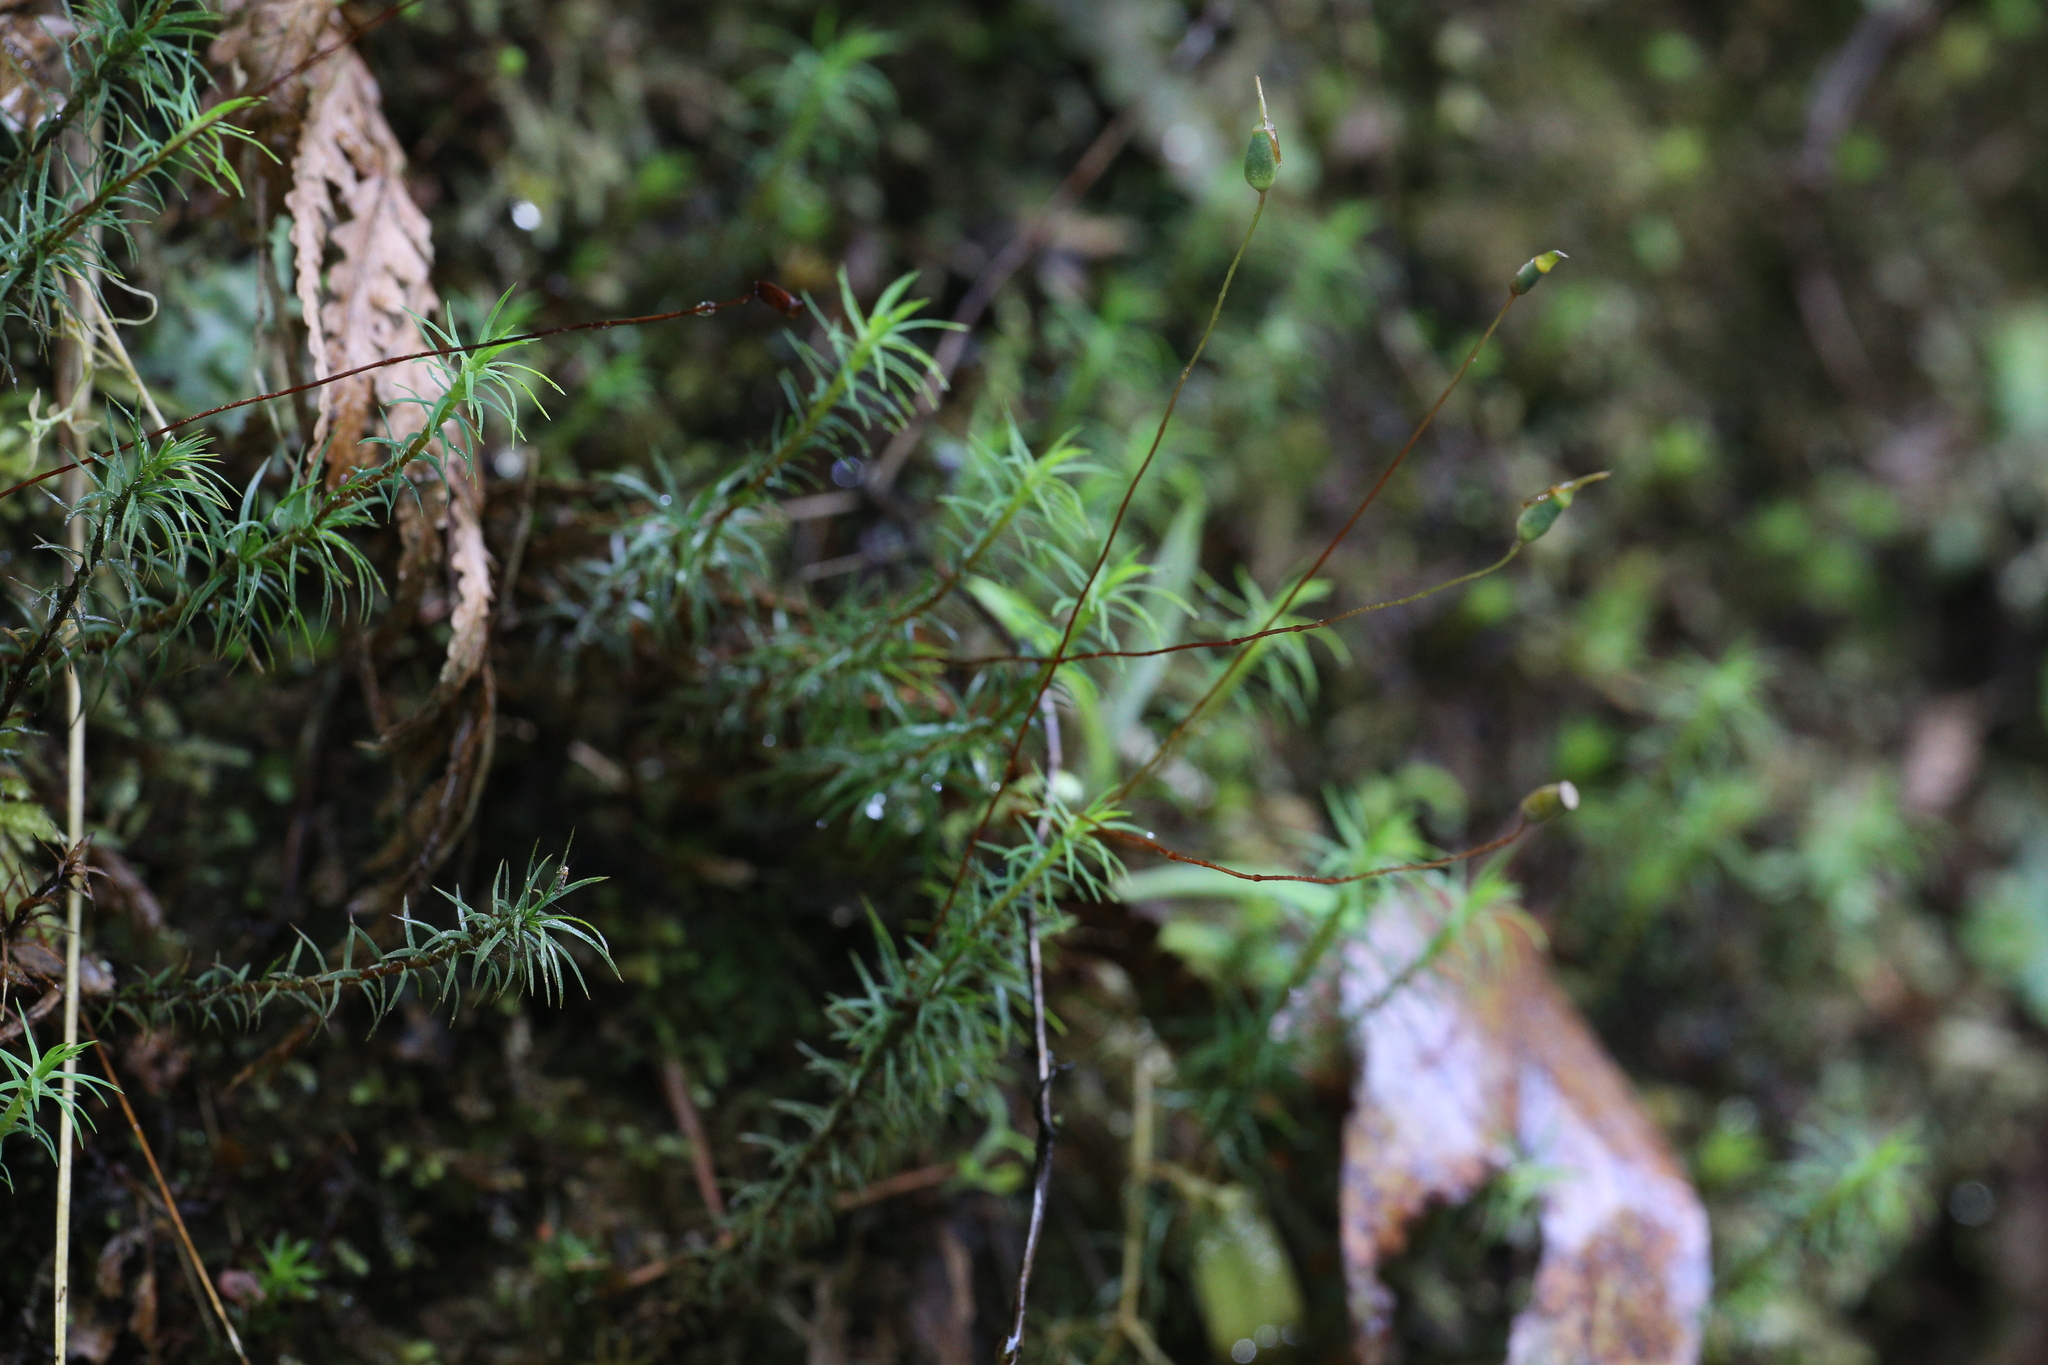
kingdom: Plantae
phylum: Bryophyta
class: Polytrichopsida
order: Polytrichales
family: Polytrichaceae
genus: Polytrichadelphus
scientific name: Polytrichadelphus magellanicus
